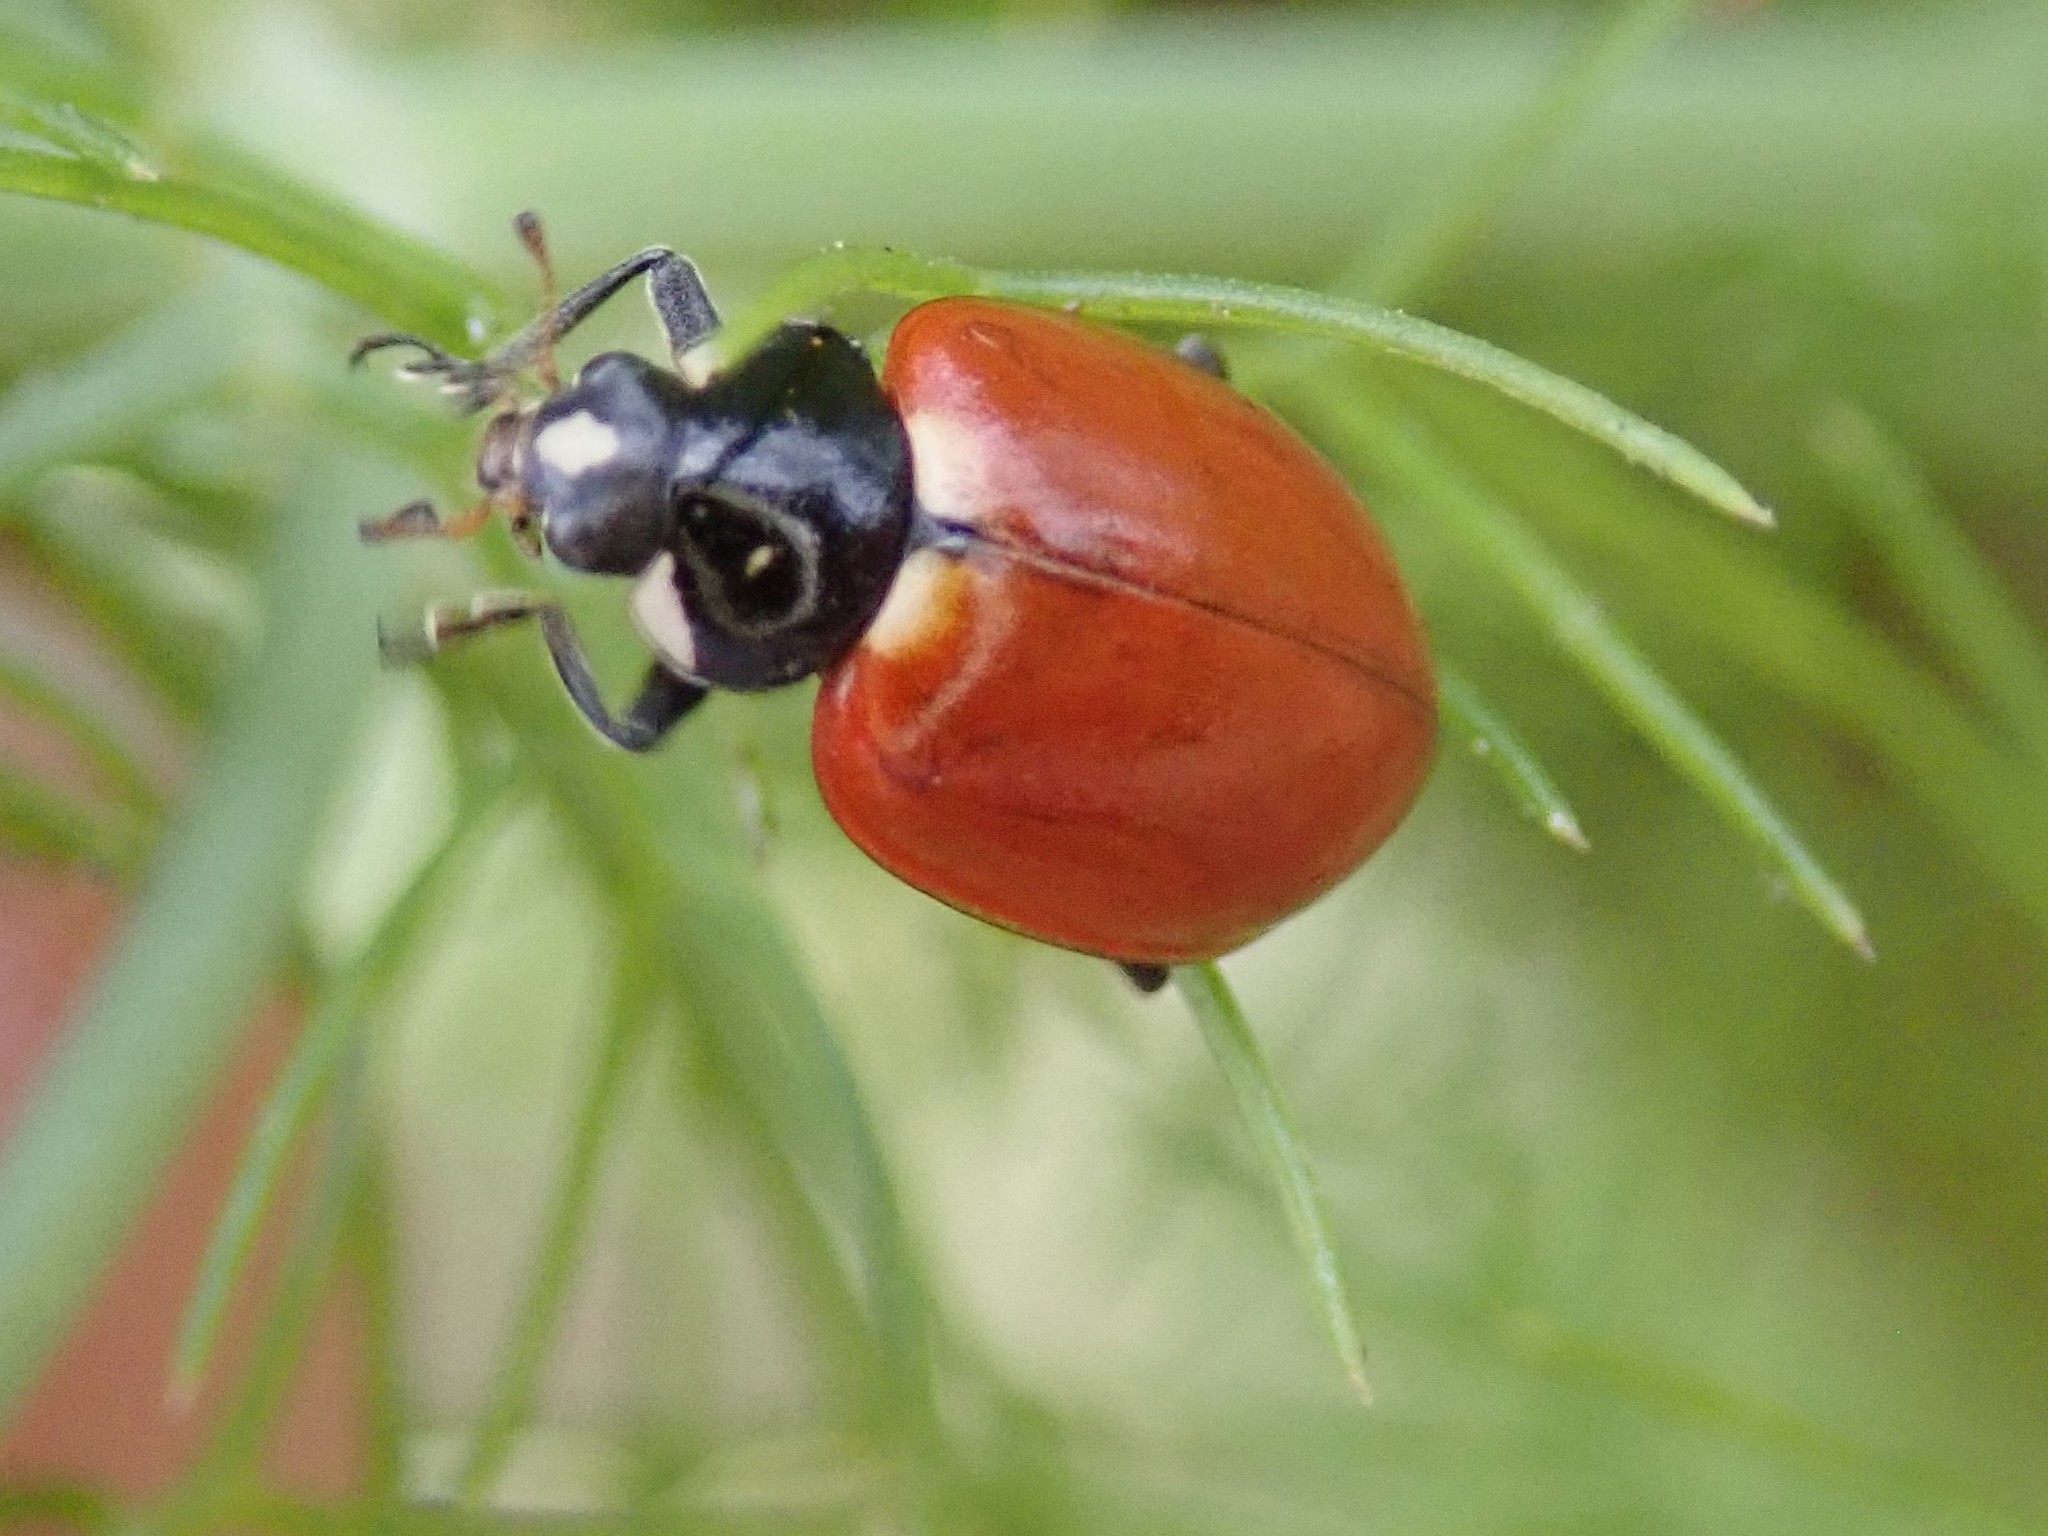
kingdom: Animalia
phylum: Arthropoda
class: Insecta
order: Coleoptera
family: Coccinellidae
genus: Hippodamia
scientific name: Hippodamia quinquesignata
